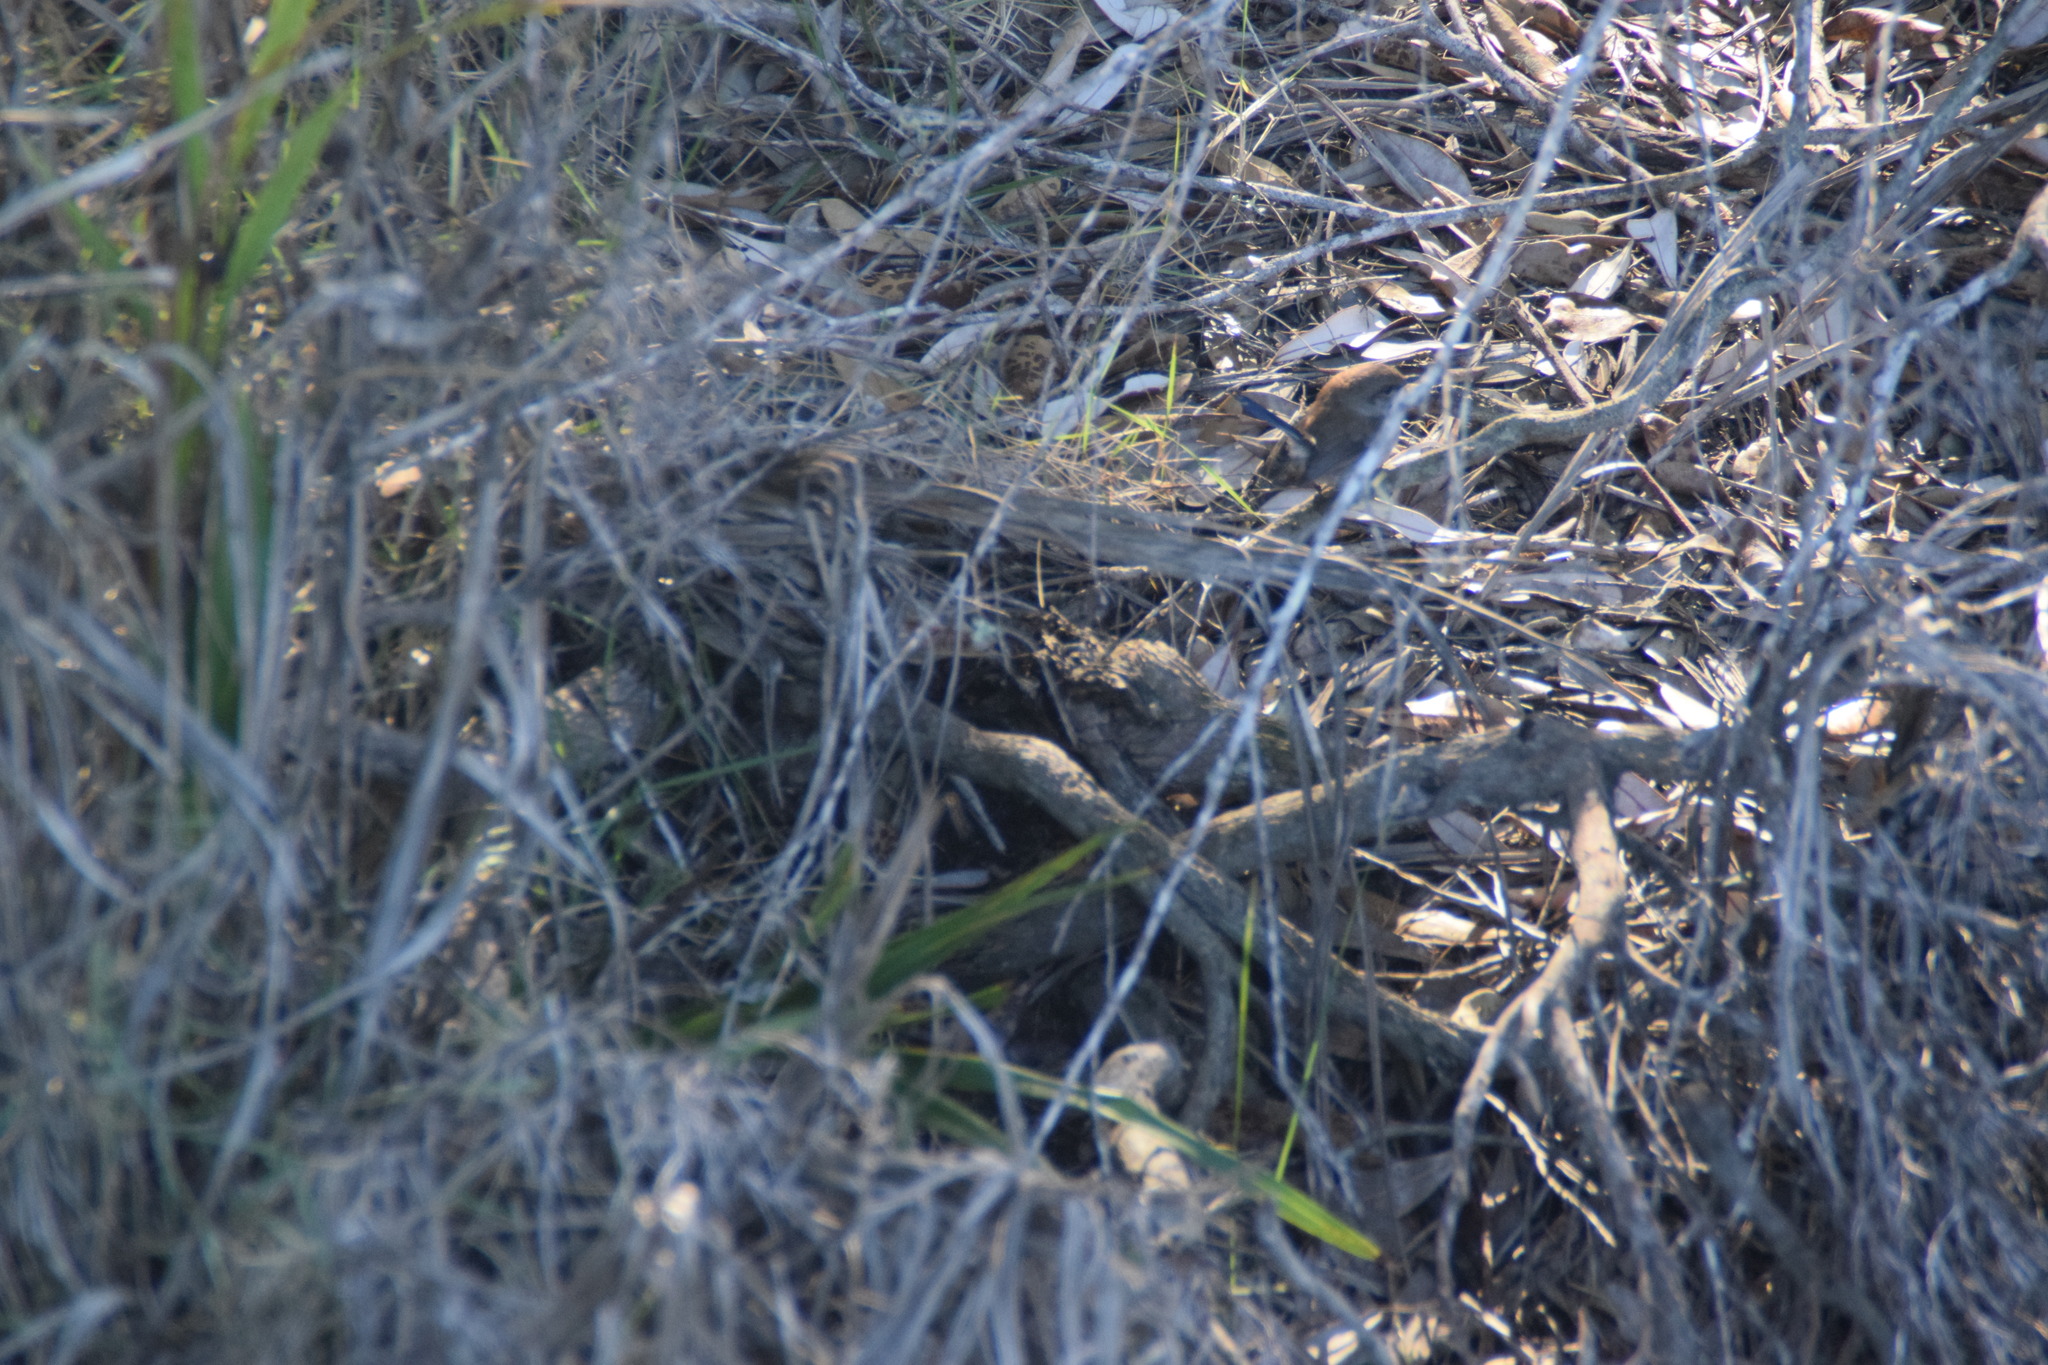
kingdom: Animalia
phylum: Chordata
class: Aves
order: Passeriformes
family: Maluridae
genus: Malurus
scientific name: Malurus cyaneus
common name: Superb fairywren
